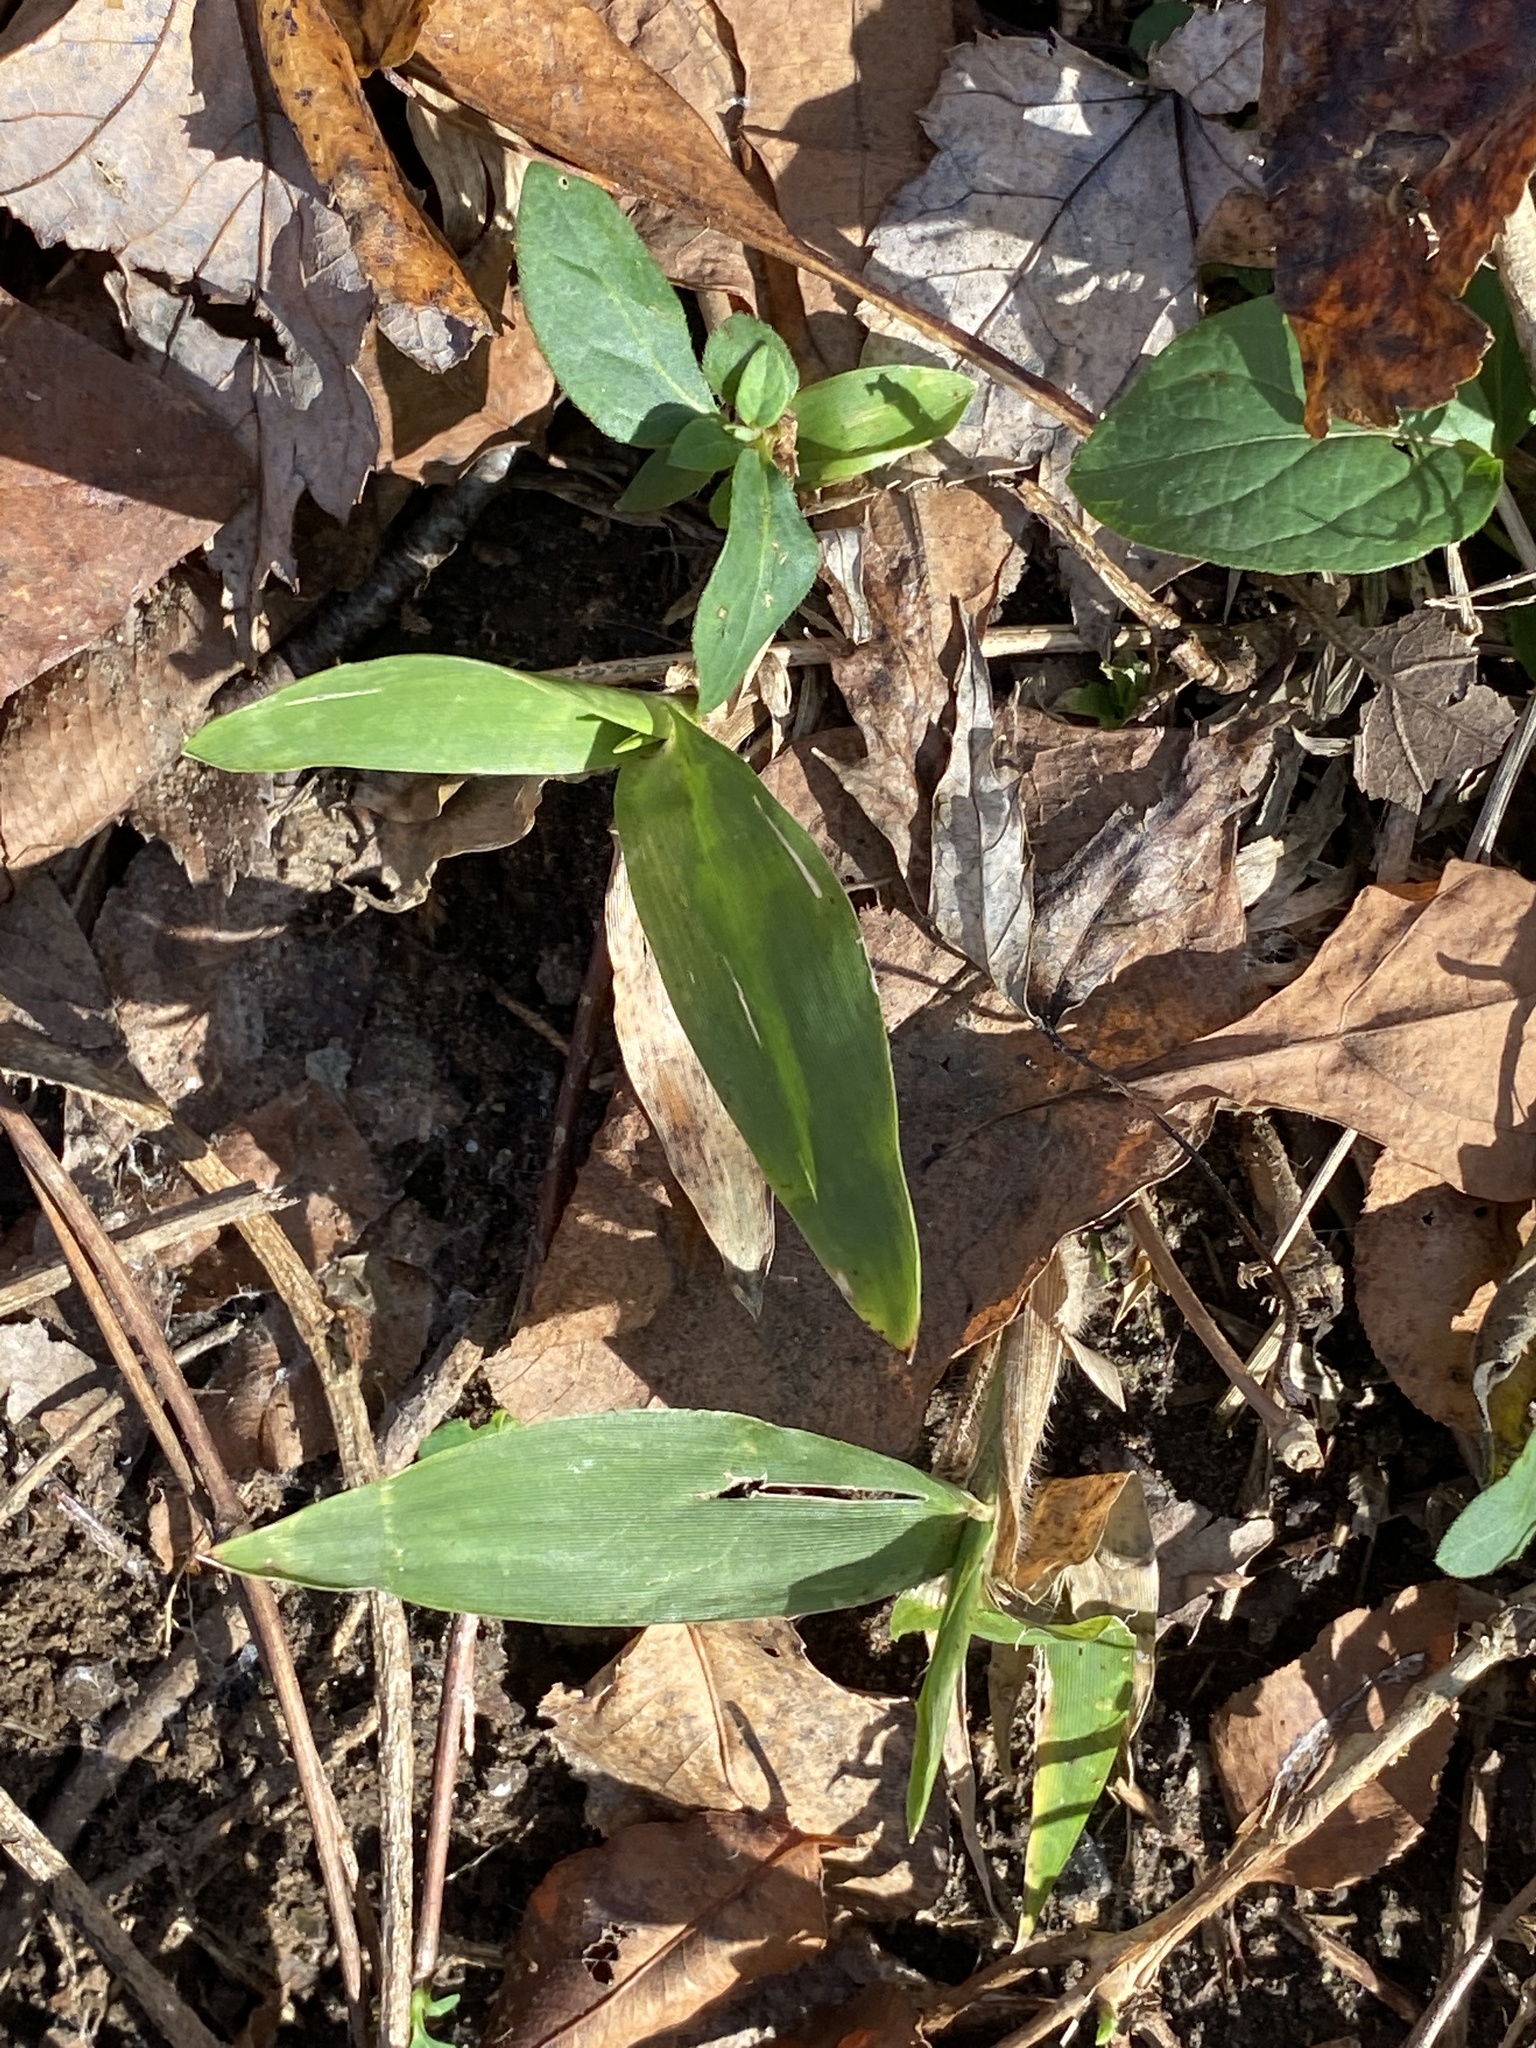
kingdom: Plantae
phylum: Tracheophyta
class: Liliopsida
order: Poales
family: Poaceae
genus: Dichanthelium
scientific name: Dichanthelium clandestinum
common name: Deer-tongue grass
